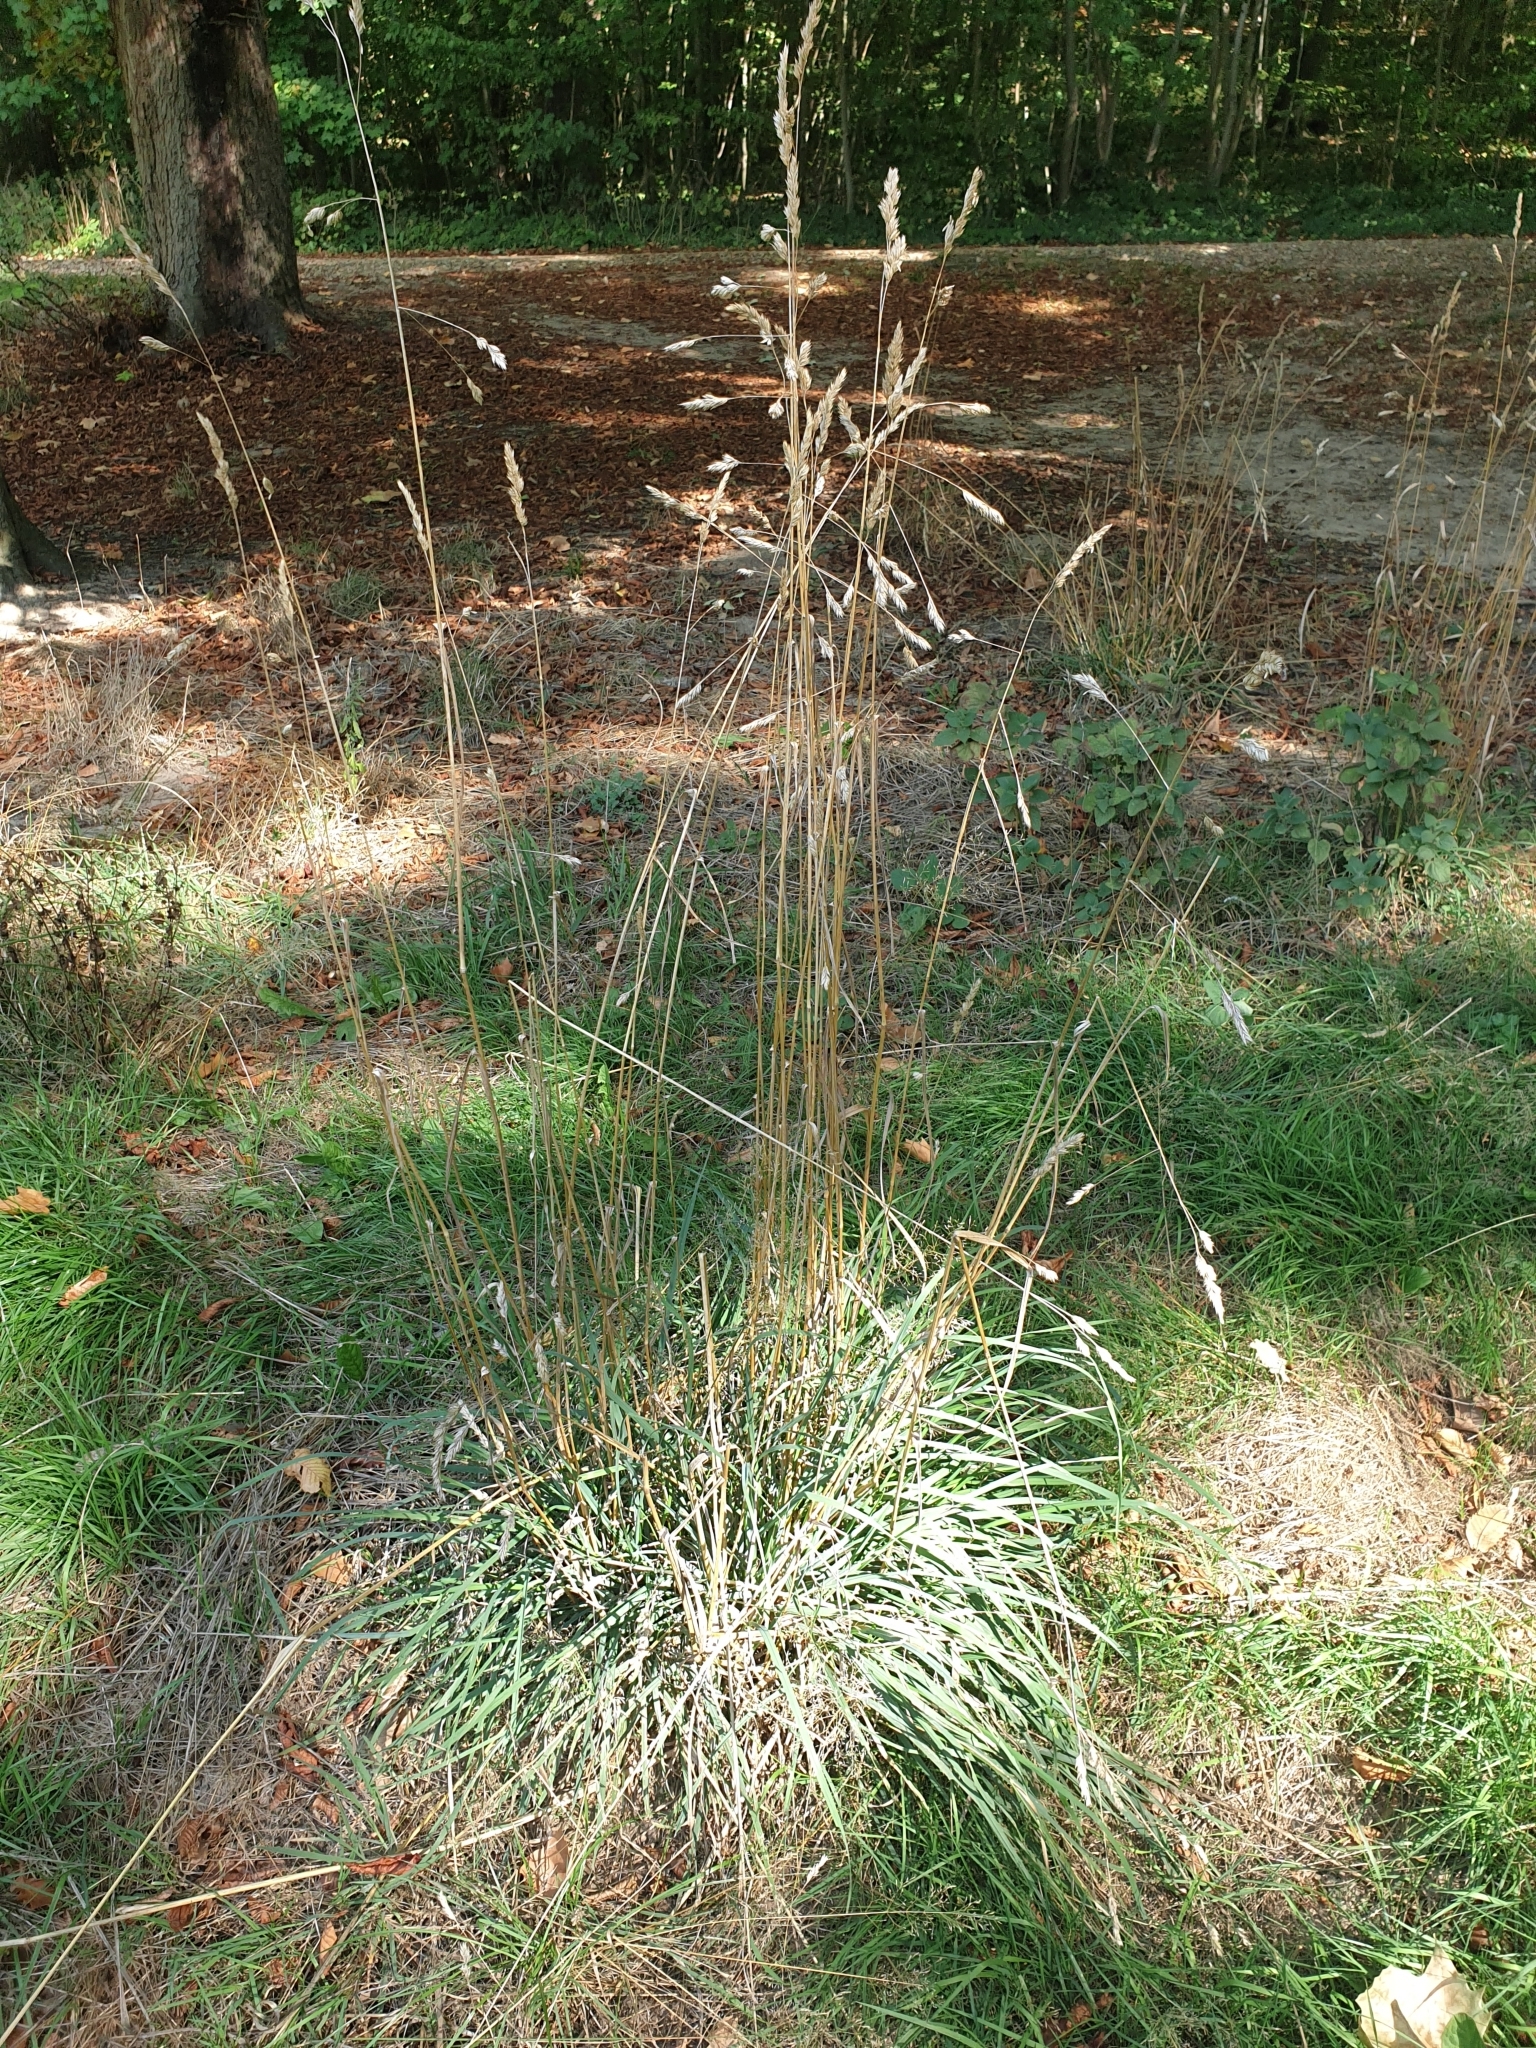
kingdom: Plantae
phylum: Tracheophyta
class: Liliopsida
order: Poales
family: Poaceae
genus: Dactylis
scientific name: Dactylis glomerata
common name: Orchardgrass
